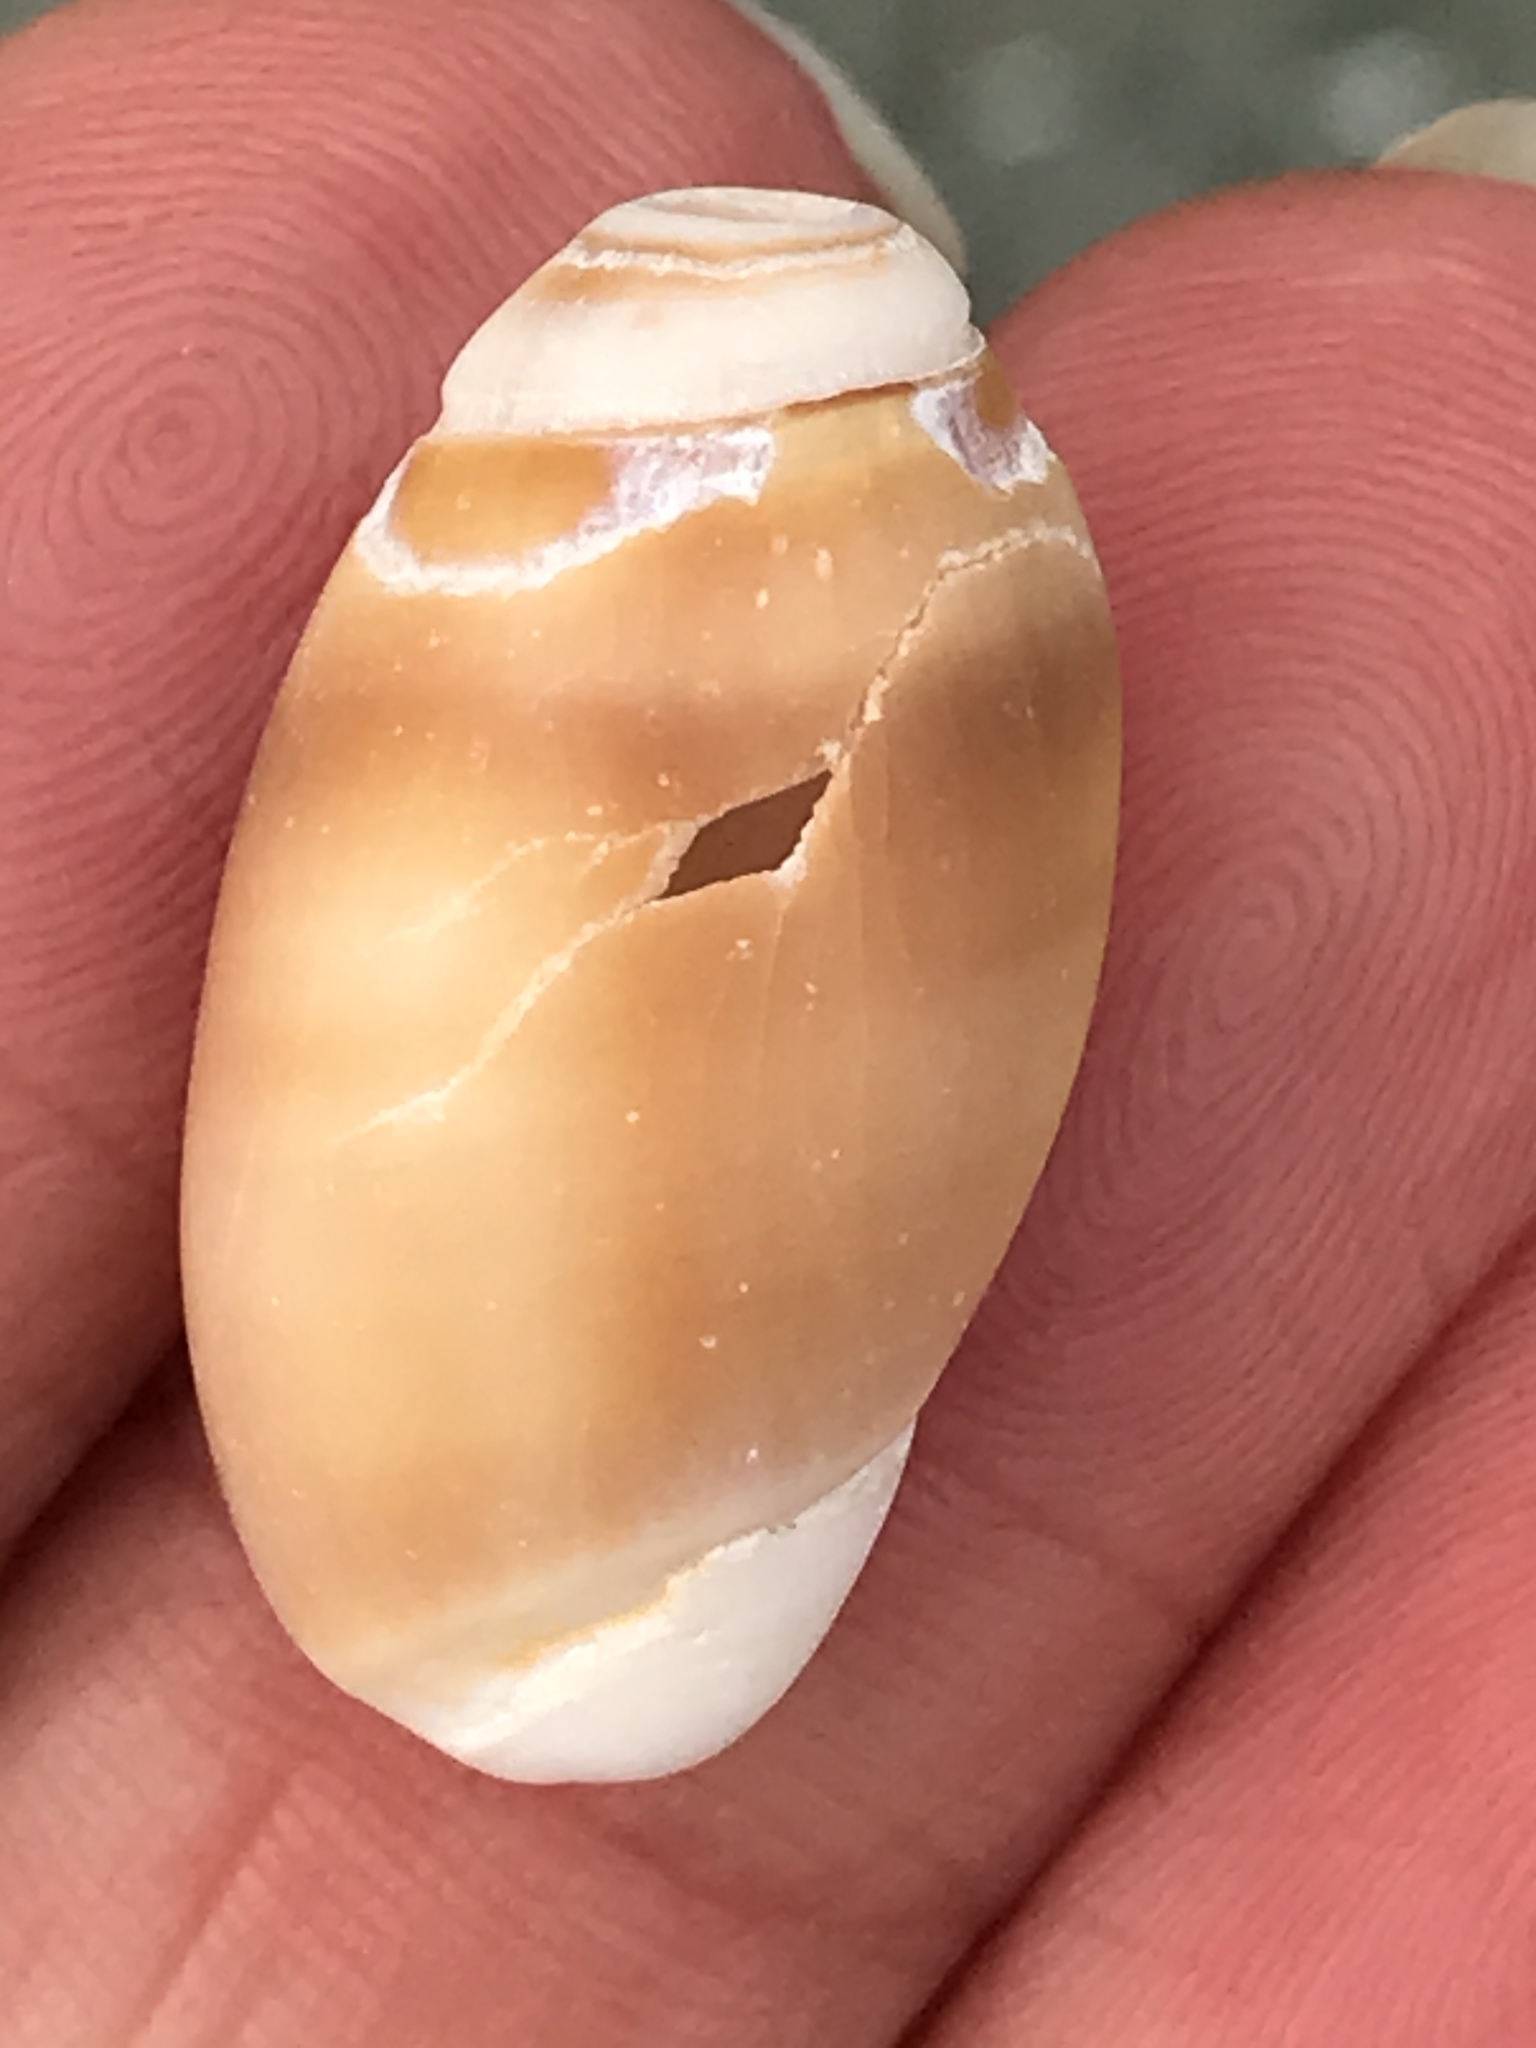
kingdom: Animalia
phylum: Mollusca
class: Gastropoda
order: Neogastropoda
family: Olividae
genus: Callianax
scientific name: Callianax biplicata
